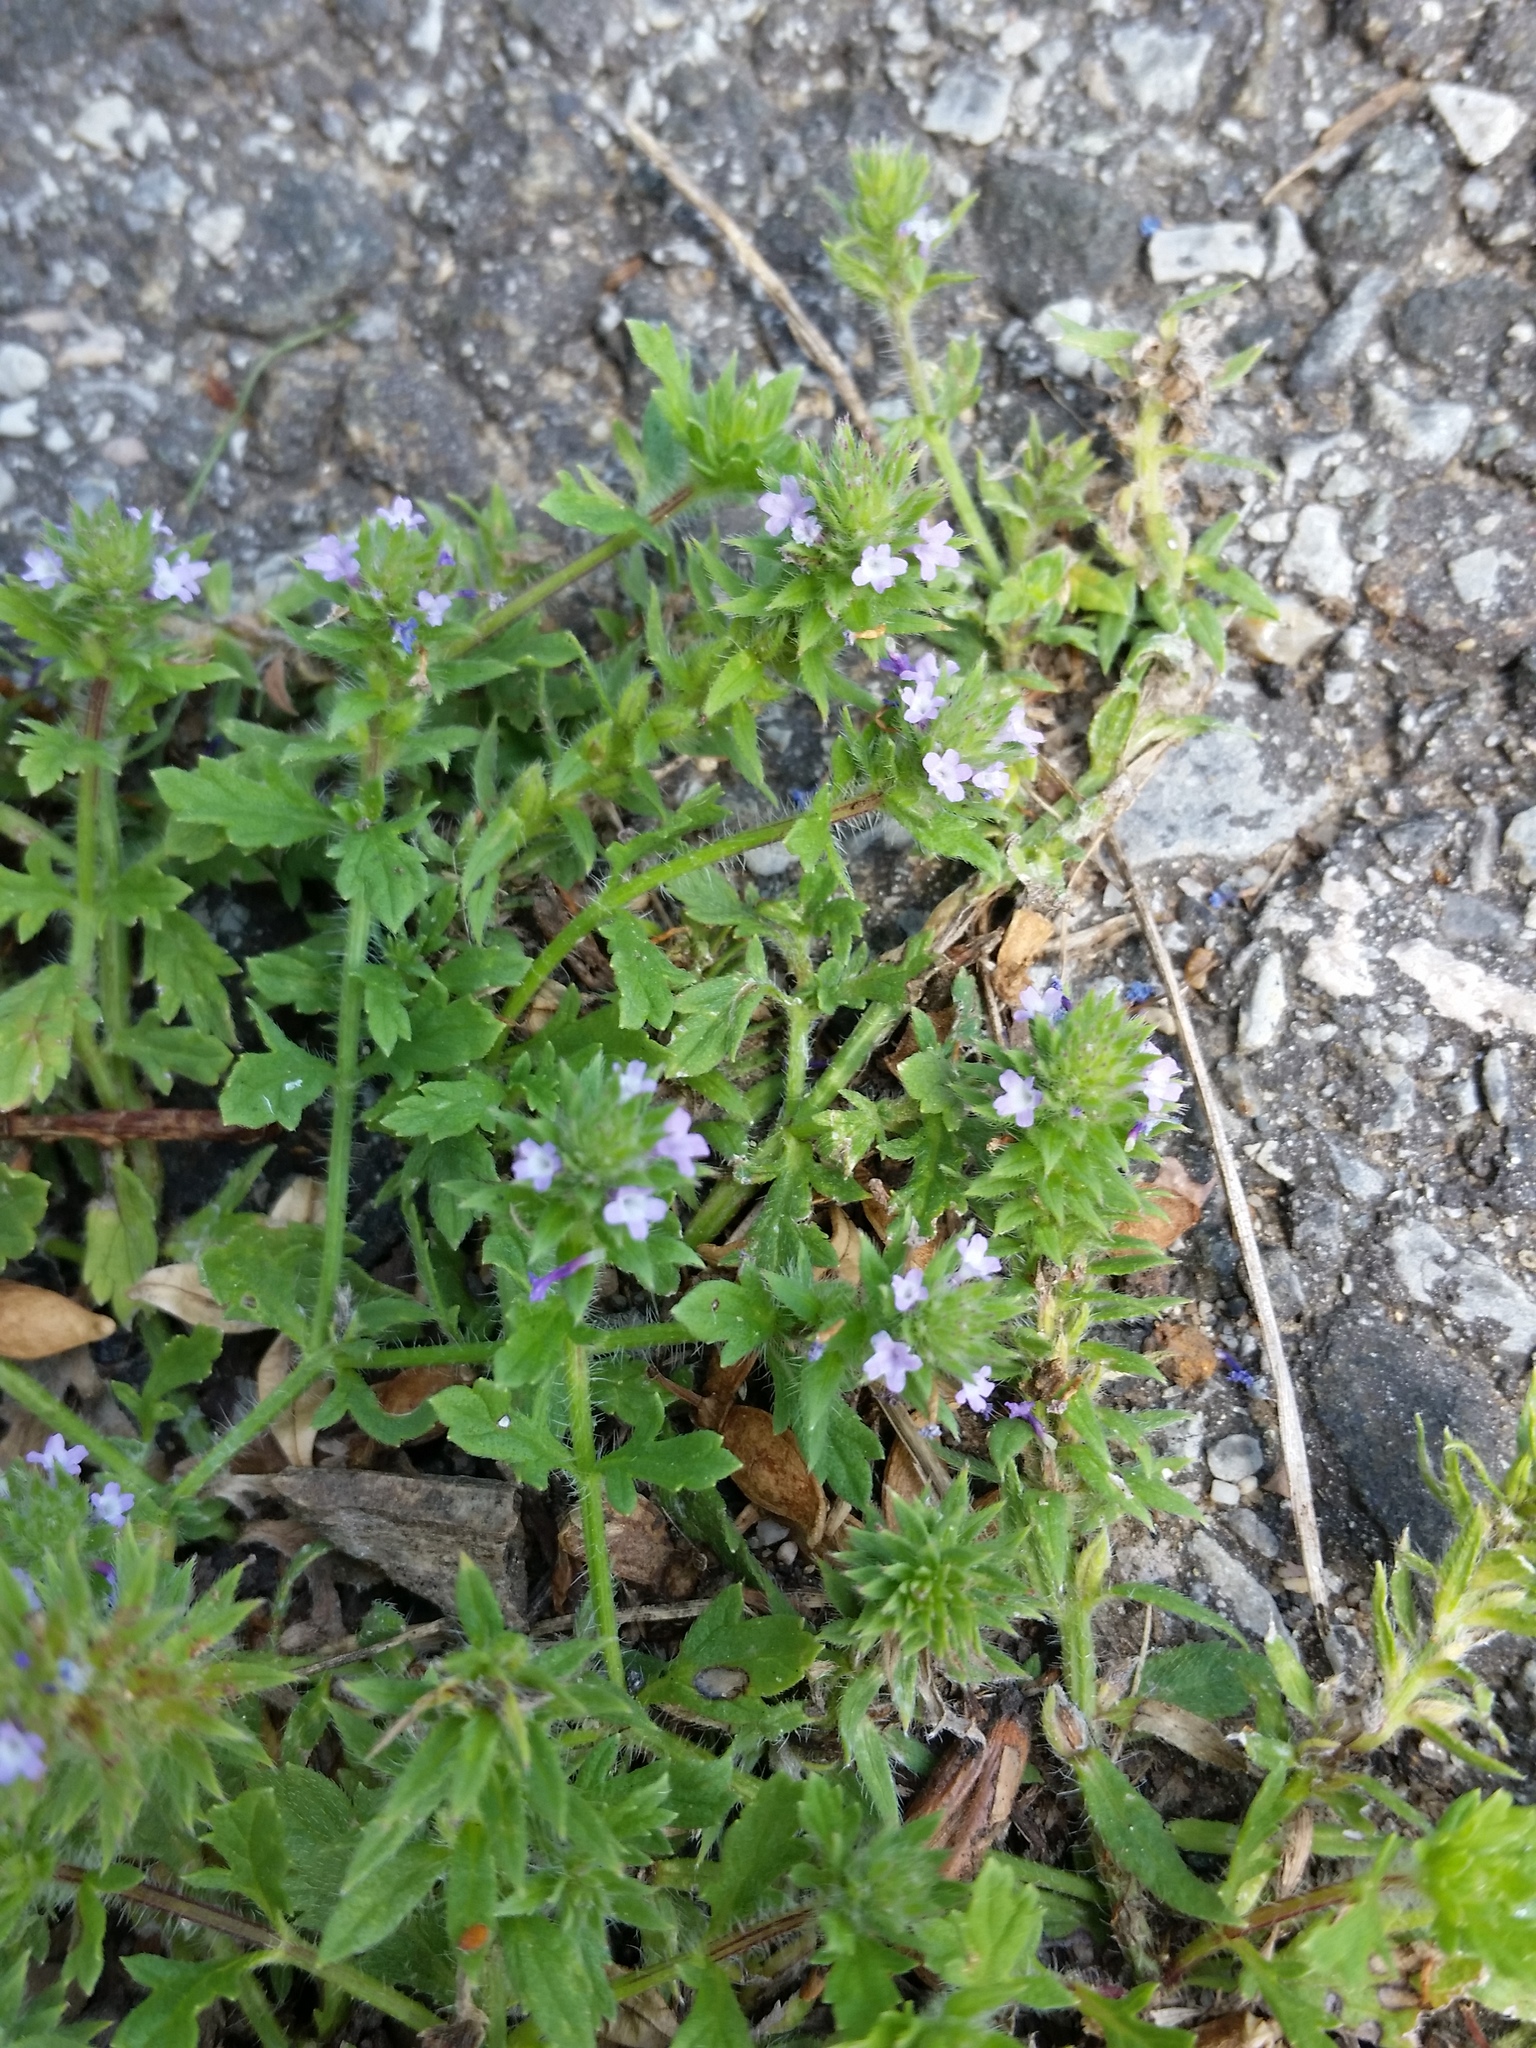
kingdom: Plantae
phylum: Tracheophyta
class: Magnoliopsida
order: Lamiales
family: Verbenaceae
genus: Verbena
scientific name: Verbena bracteata
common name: Bracted vervain
